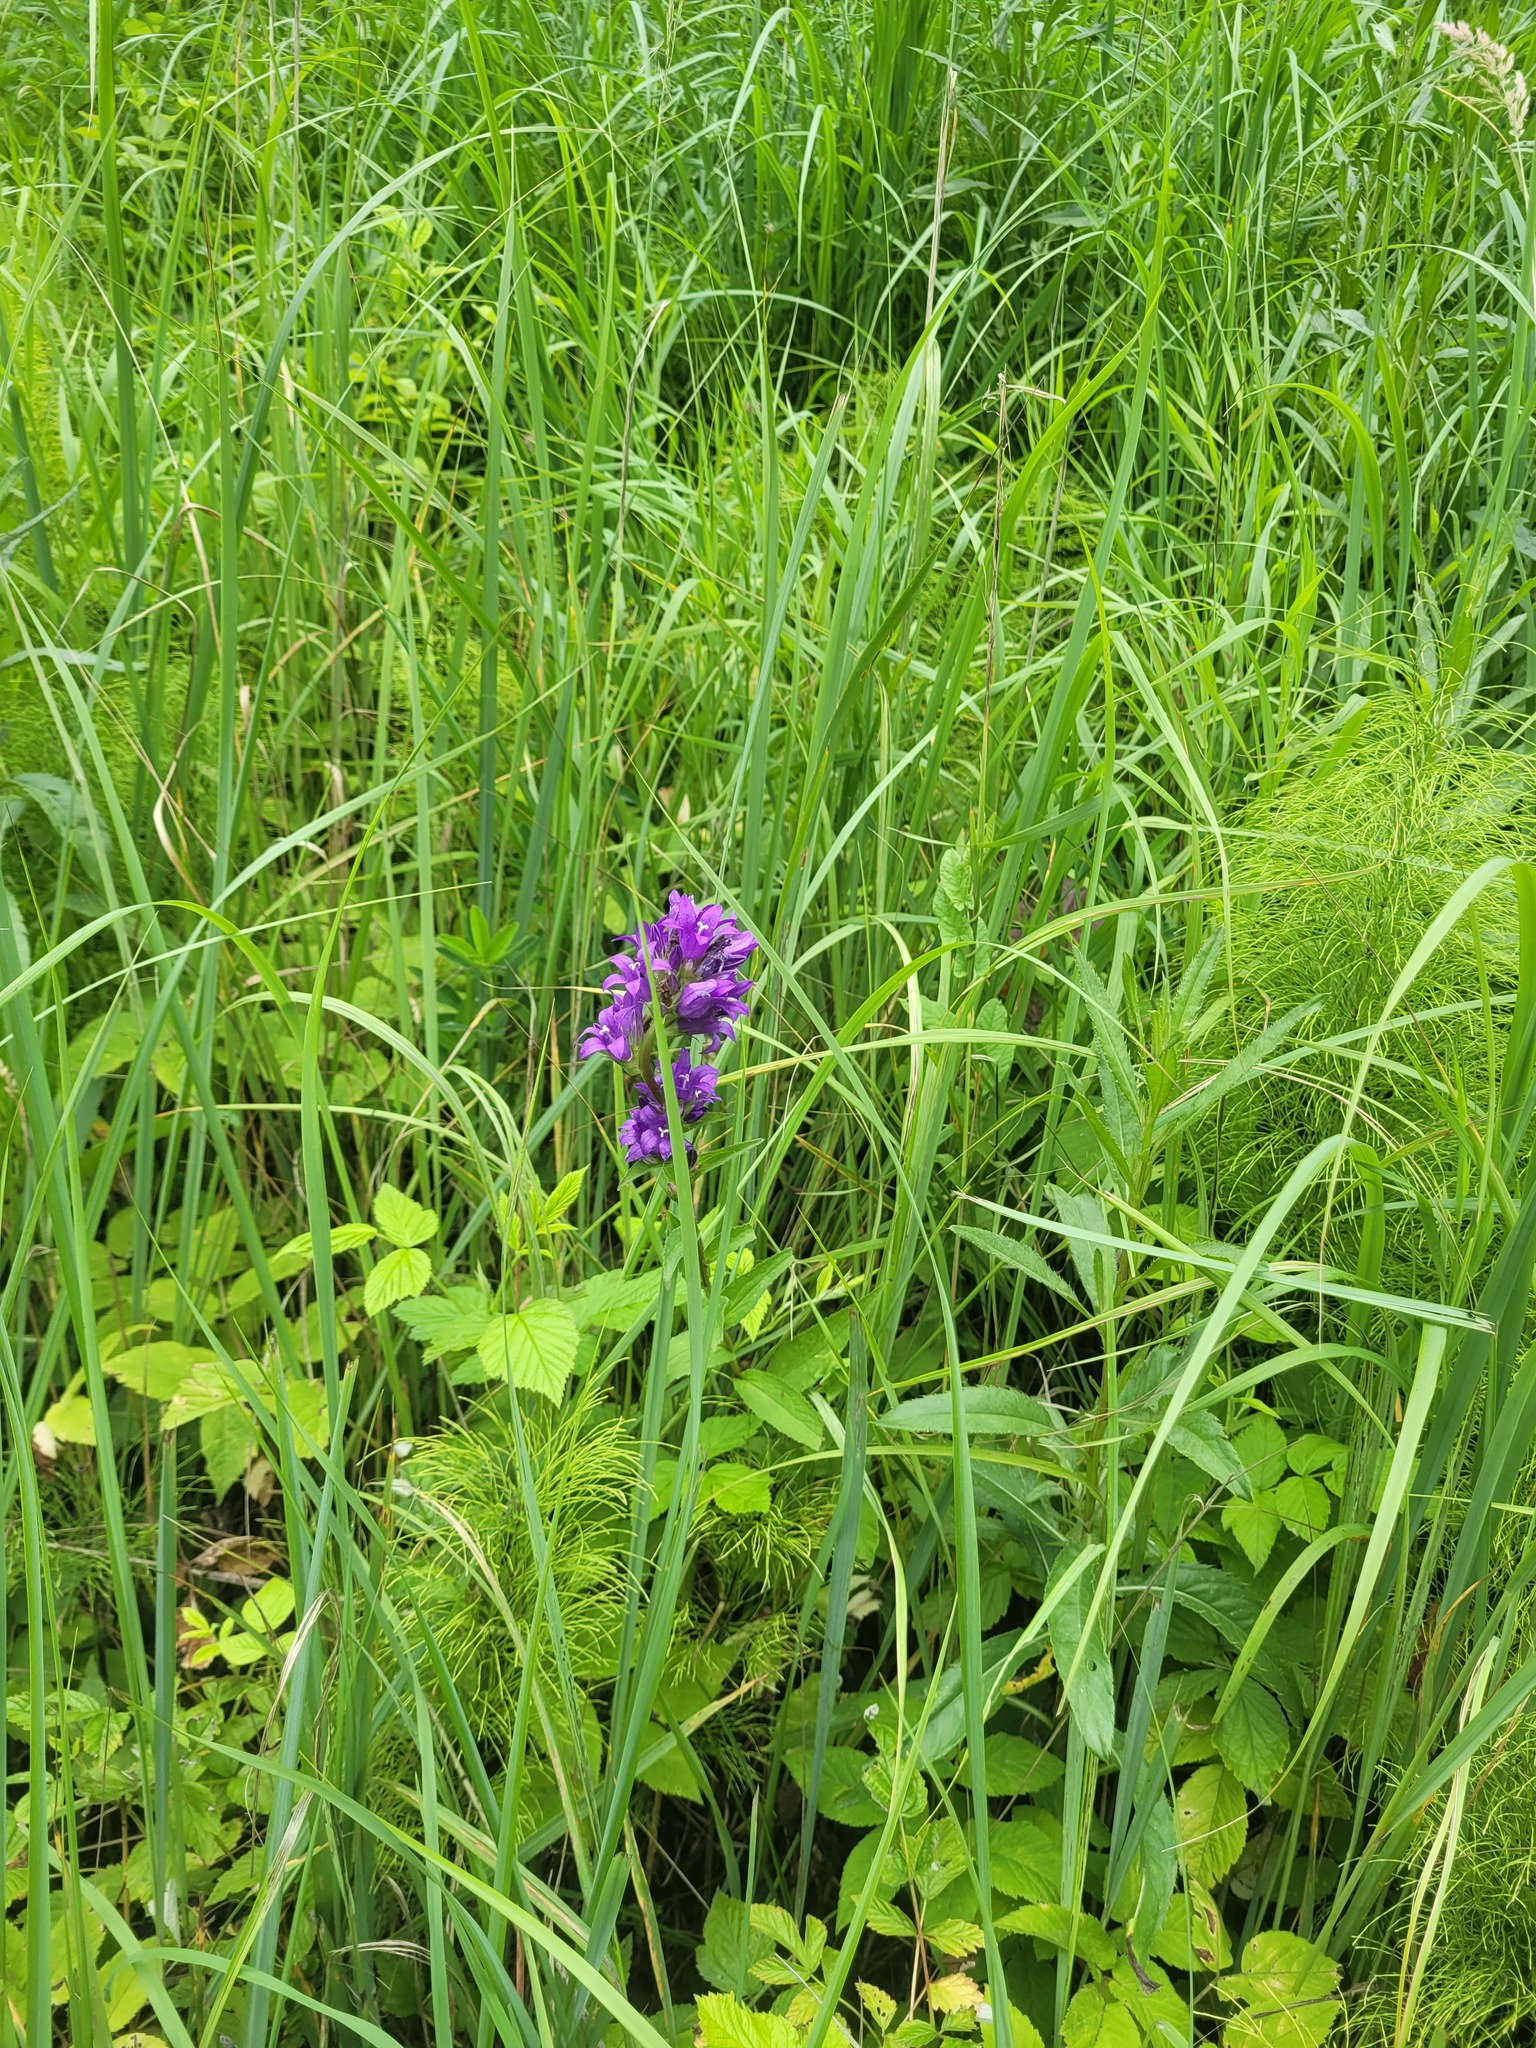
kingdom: Plantae
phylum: Tracheophyta
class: Magnoliopsida
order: Asterales
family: Campanulaceae
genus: Campanula
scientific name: Campanula glomerata
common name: Clustered bellflower
